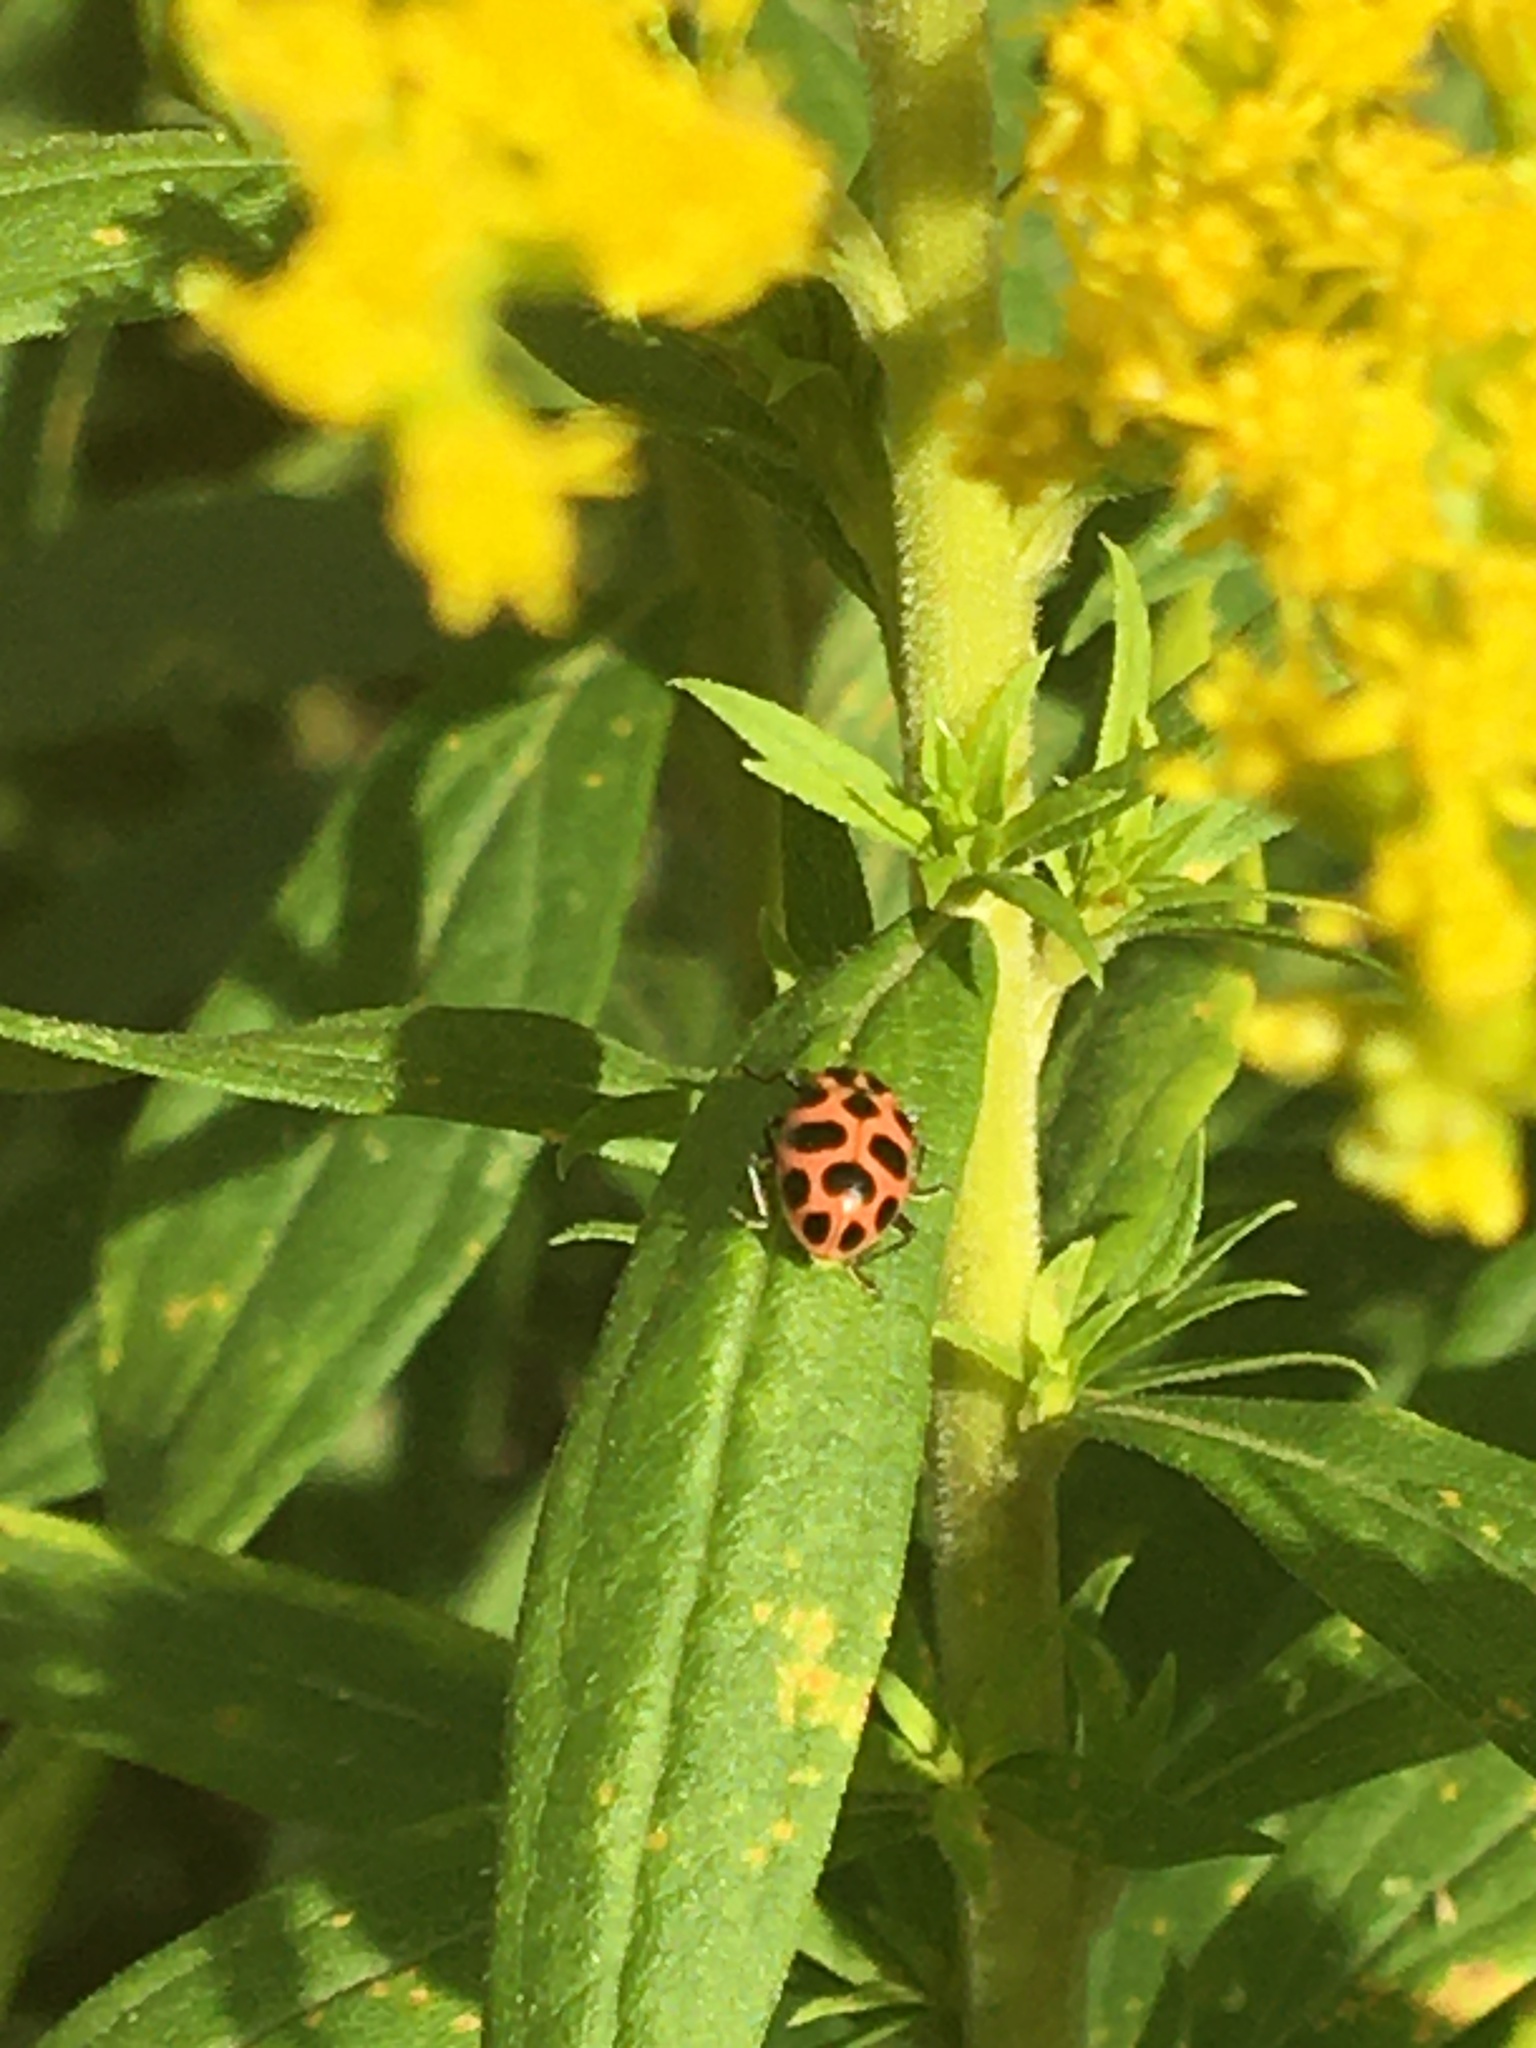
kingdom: Animalia
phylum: Arthropoda
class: Insecta
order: Coleoptera
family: Coccinellidae
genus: Coleomegilla
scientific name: Coleomegilla maculata
